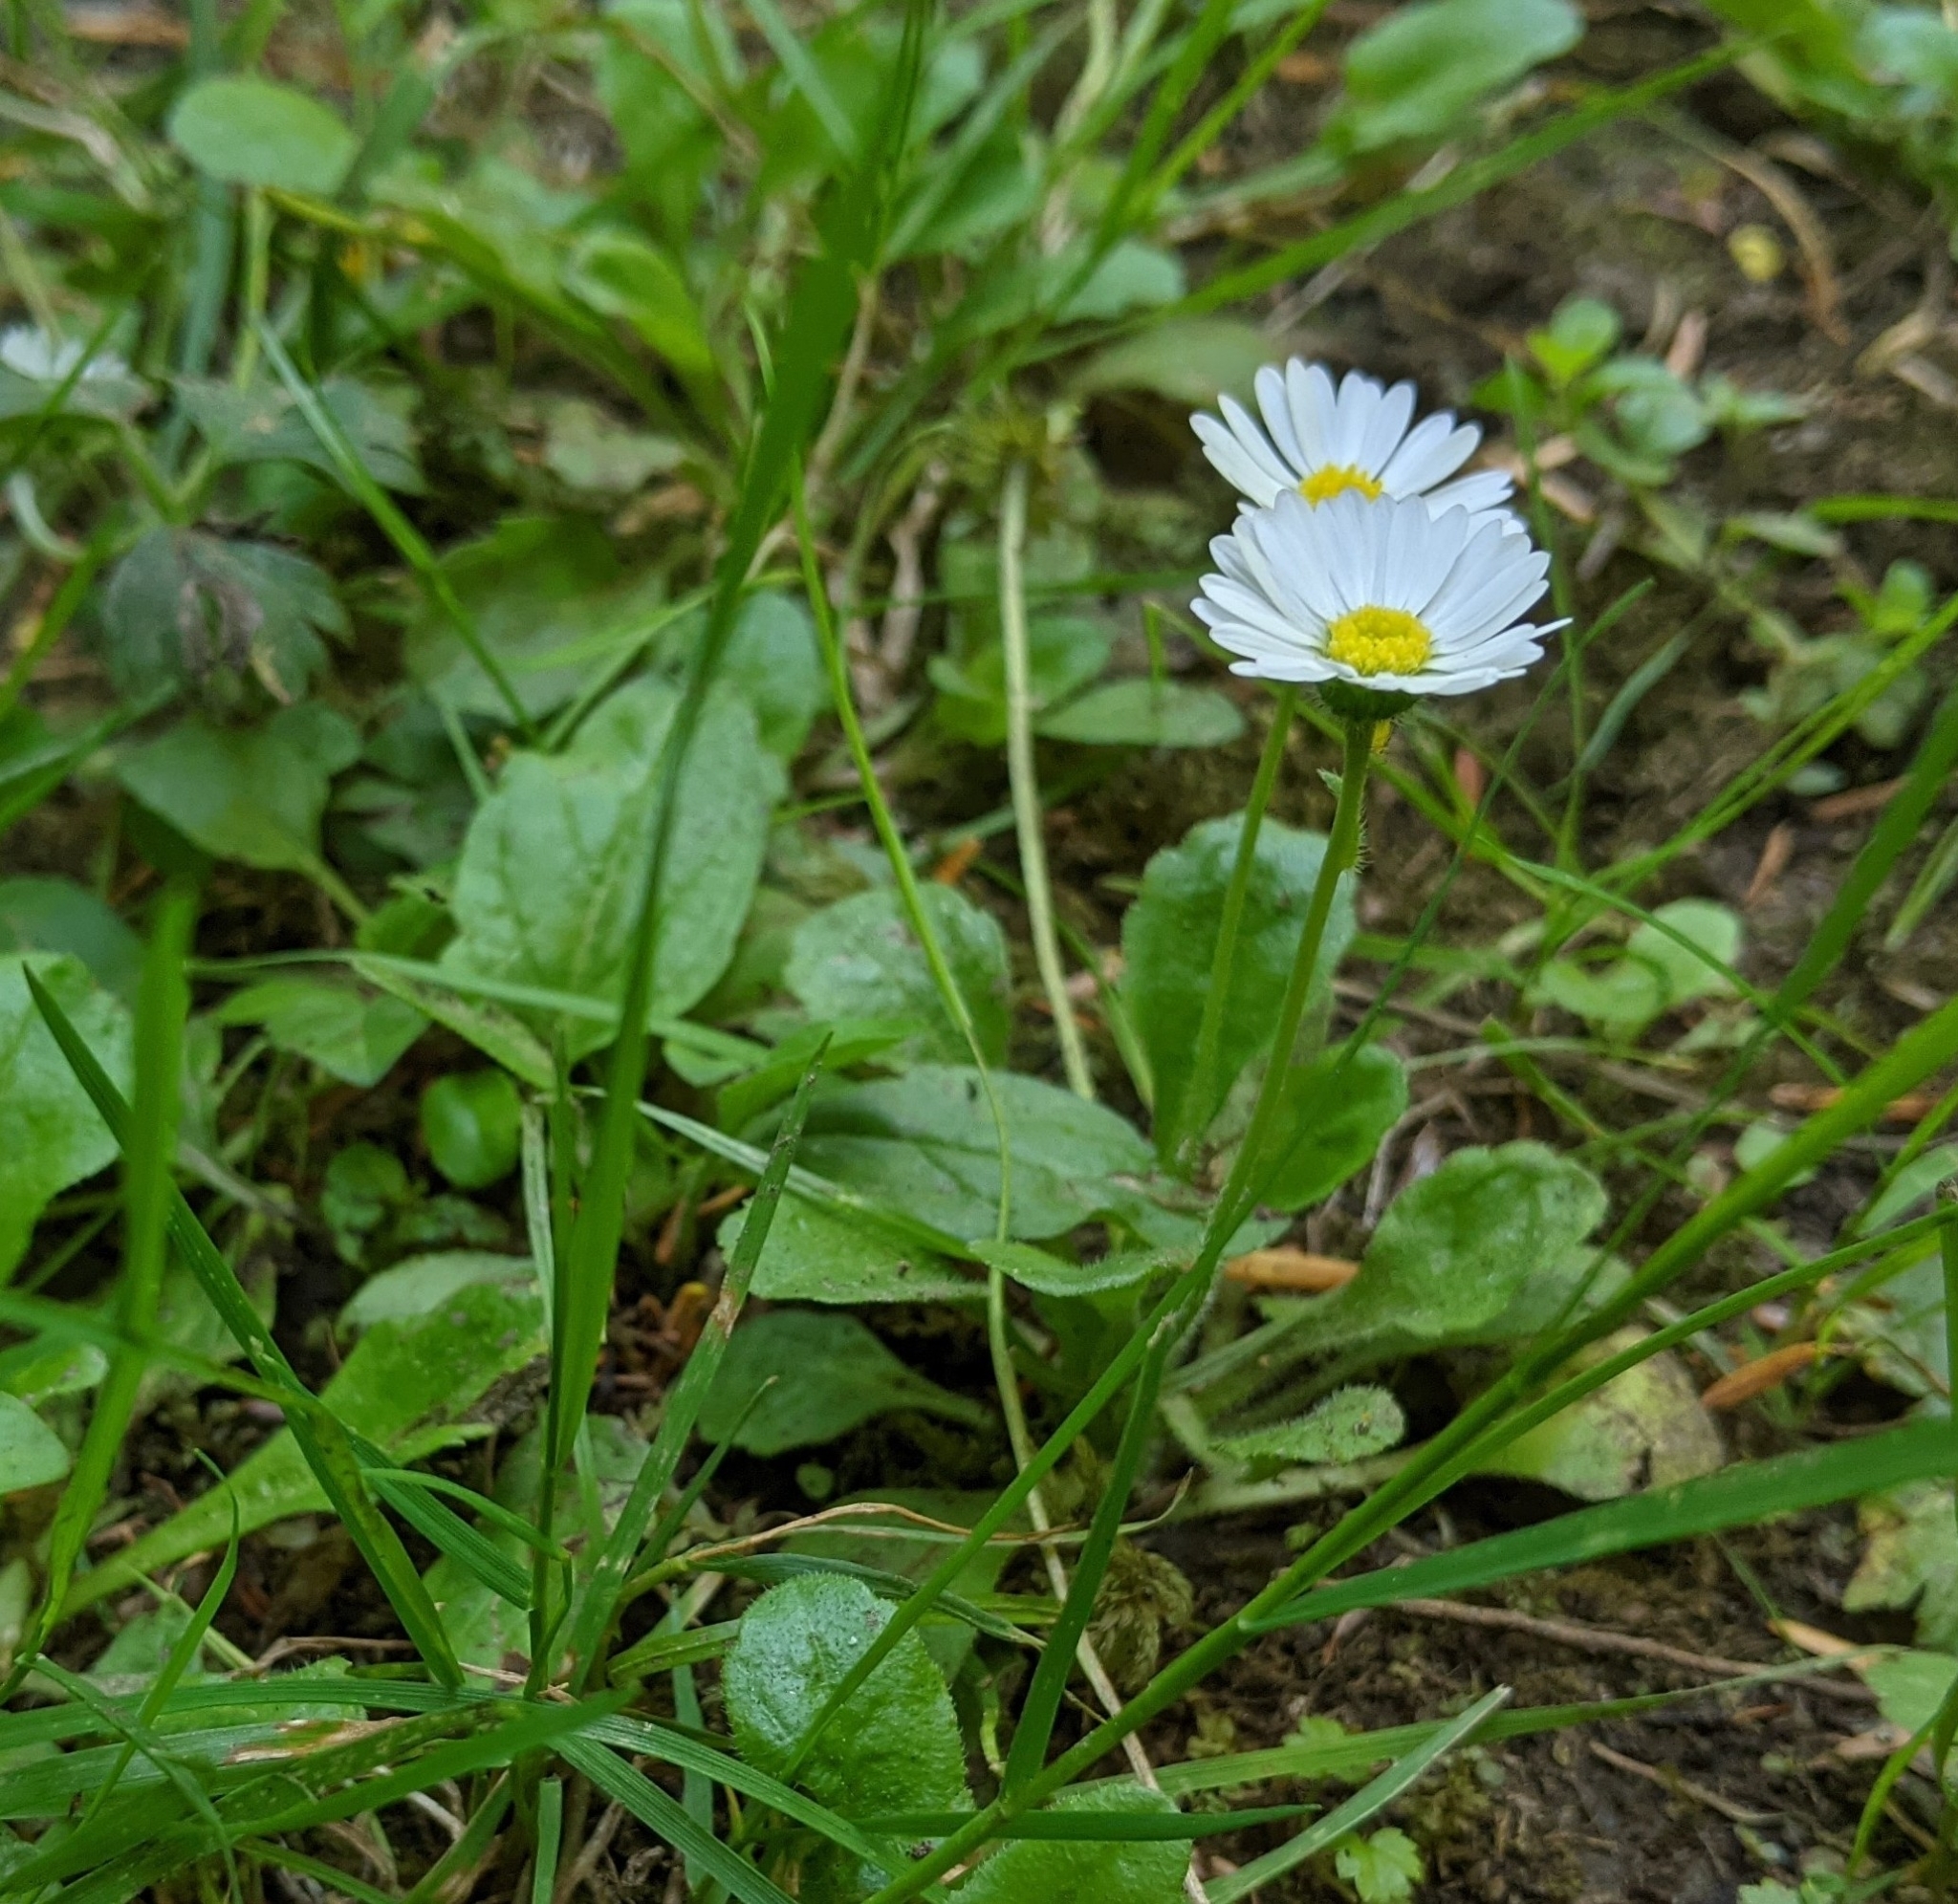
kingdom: Plantae
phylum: Tracheophyta
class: Magnoliopsida
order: Asterales
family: Asteraceae
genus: Bellis
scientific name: Bellis perennis
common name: Lawndaisy
